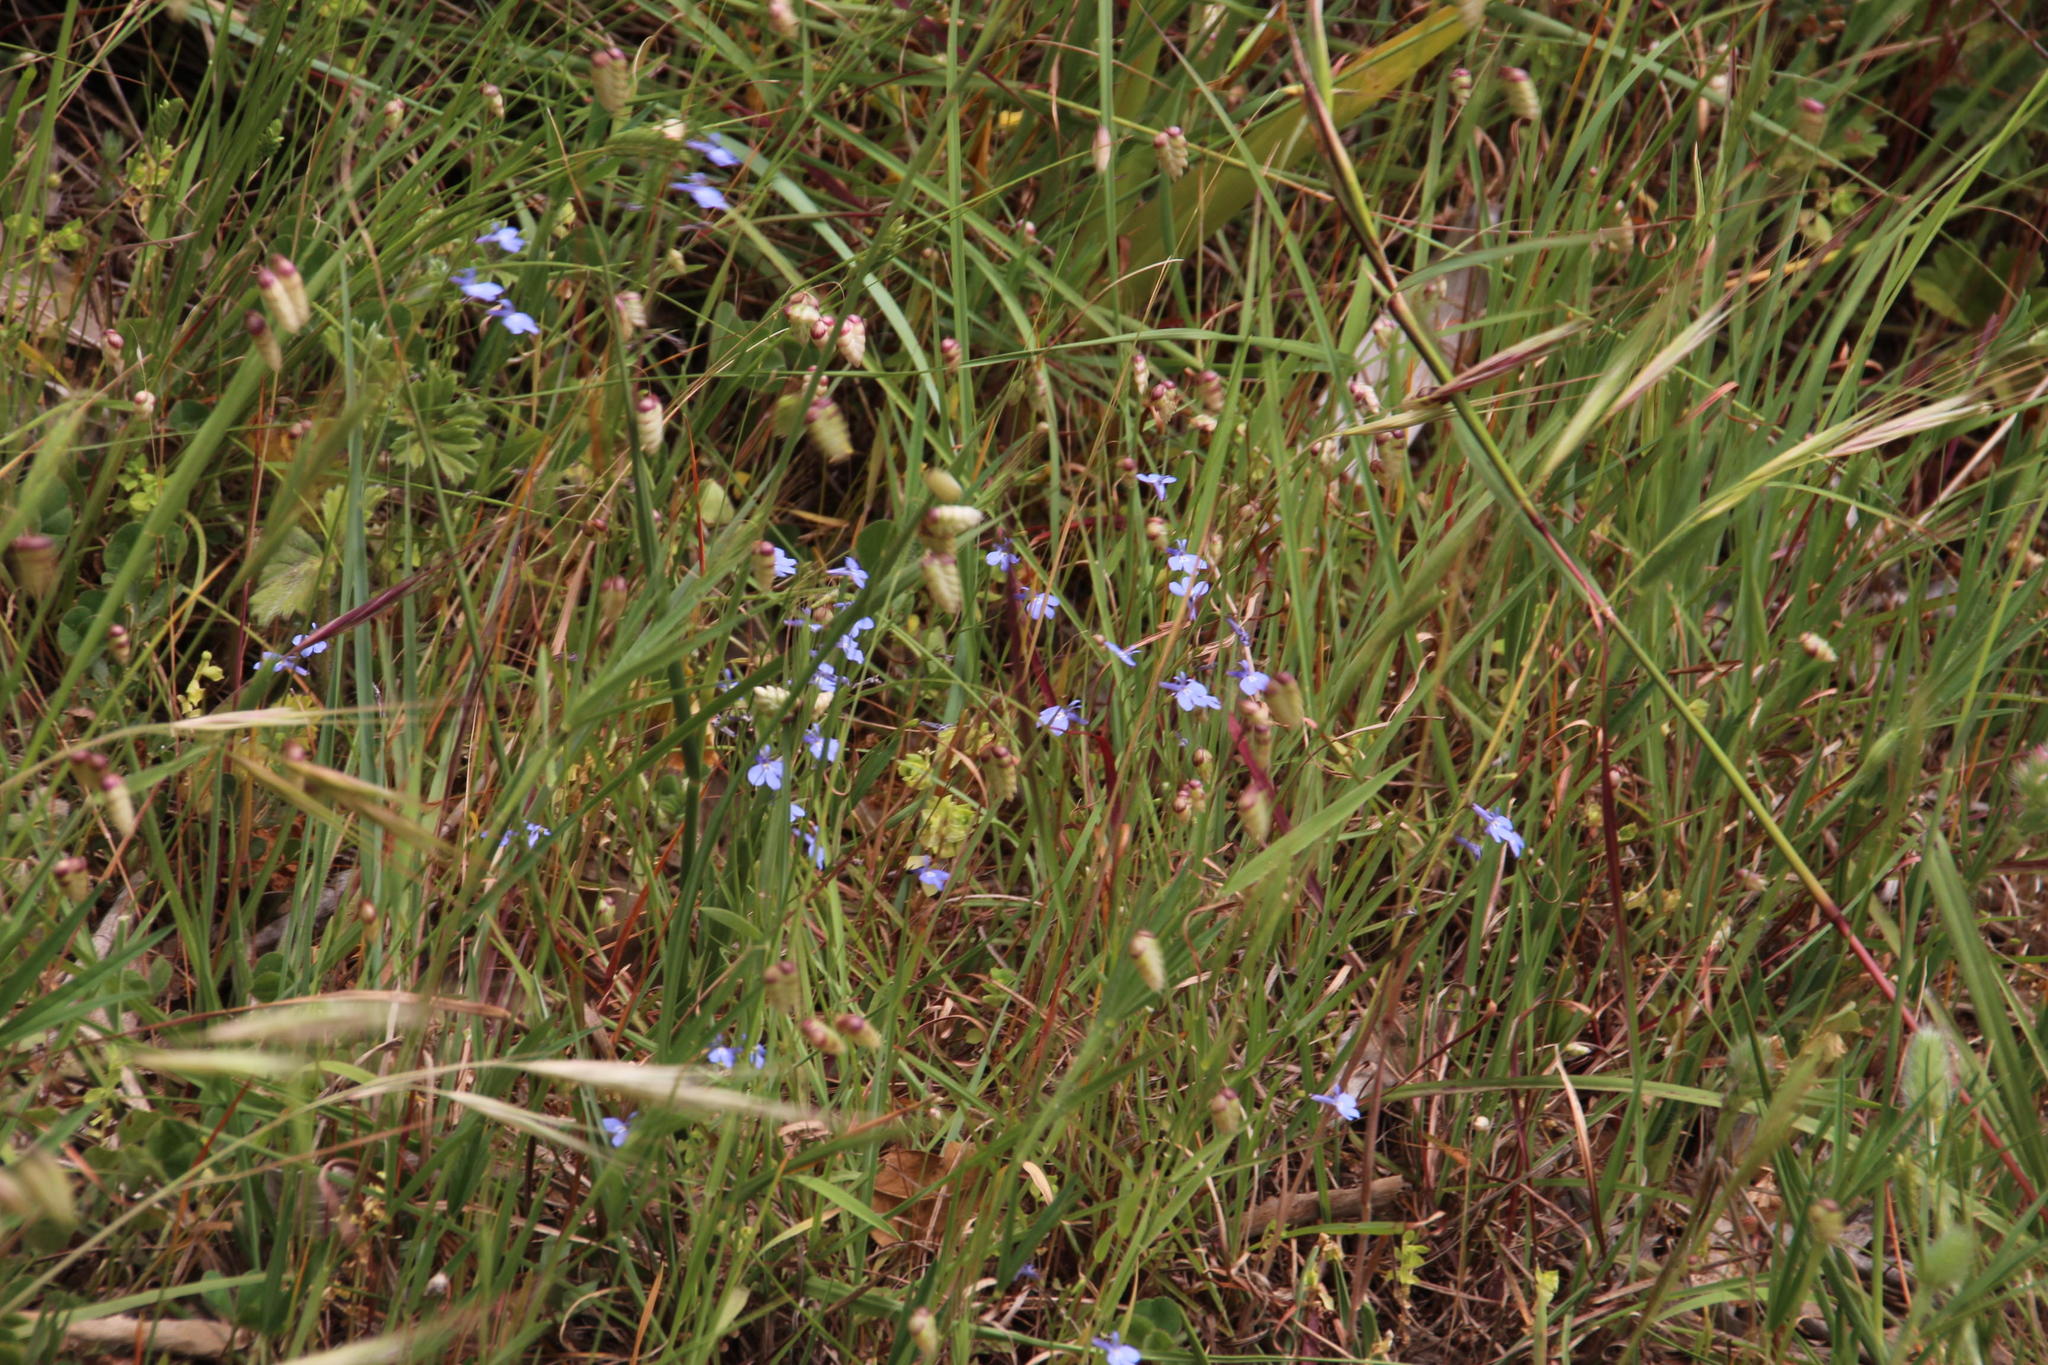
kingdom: Plantae
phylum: Tracheophyta
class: Magnoliopsida
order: Asterales
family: Campanulaceae
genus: Lobelia
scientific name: Lobelia erinus
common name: Edging lobelia
